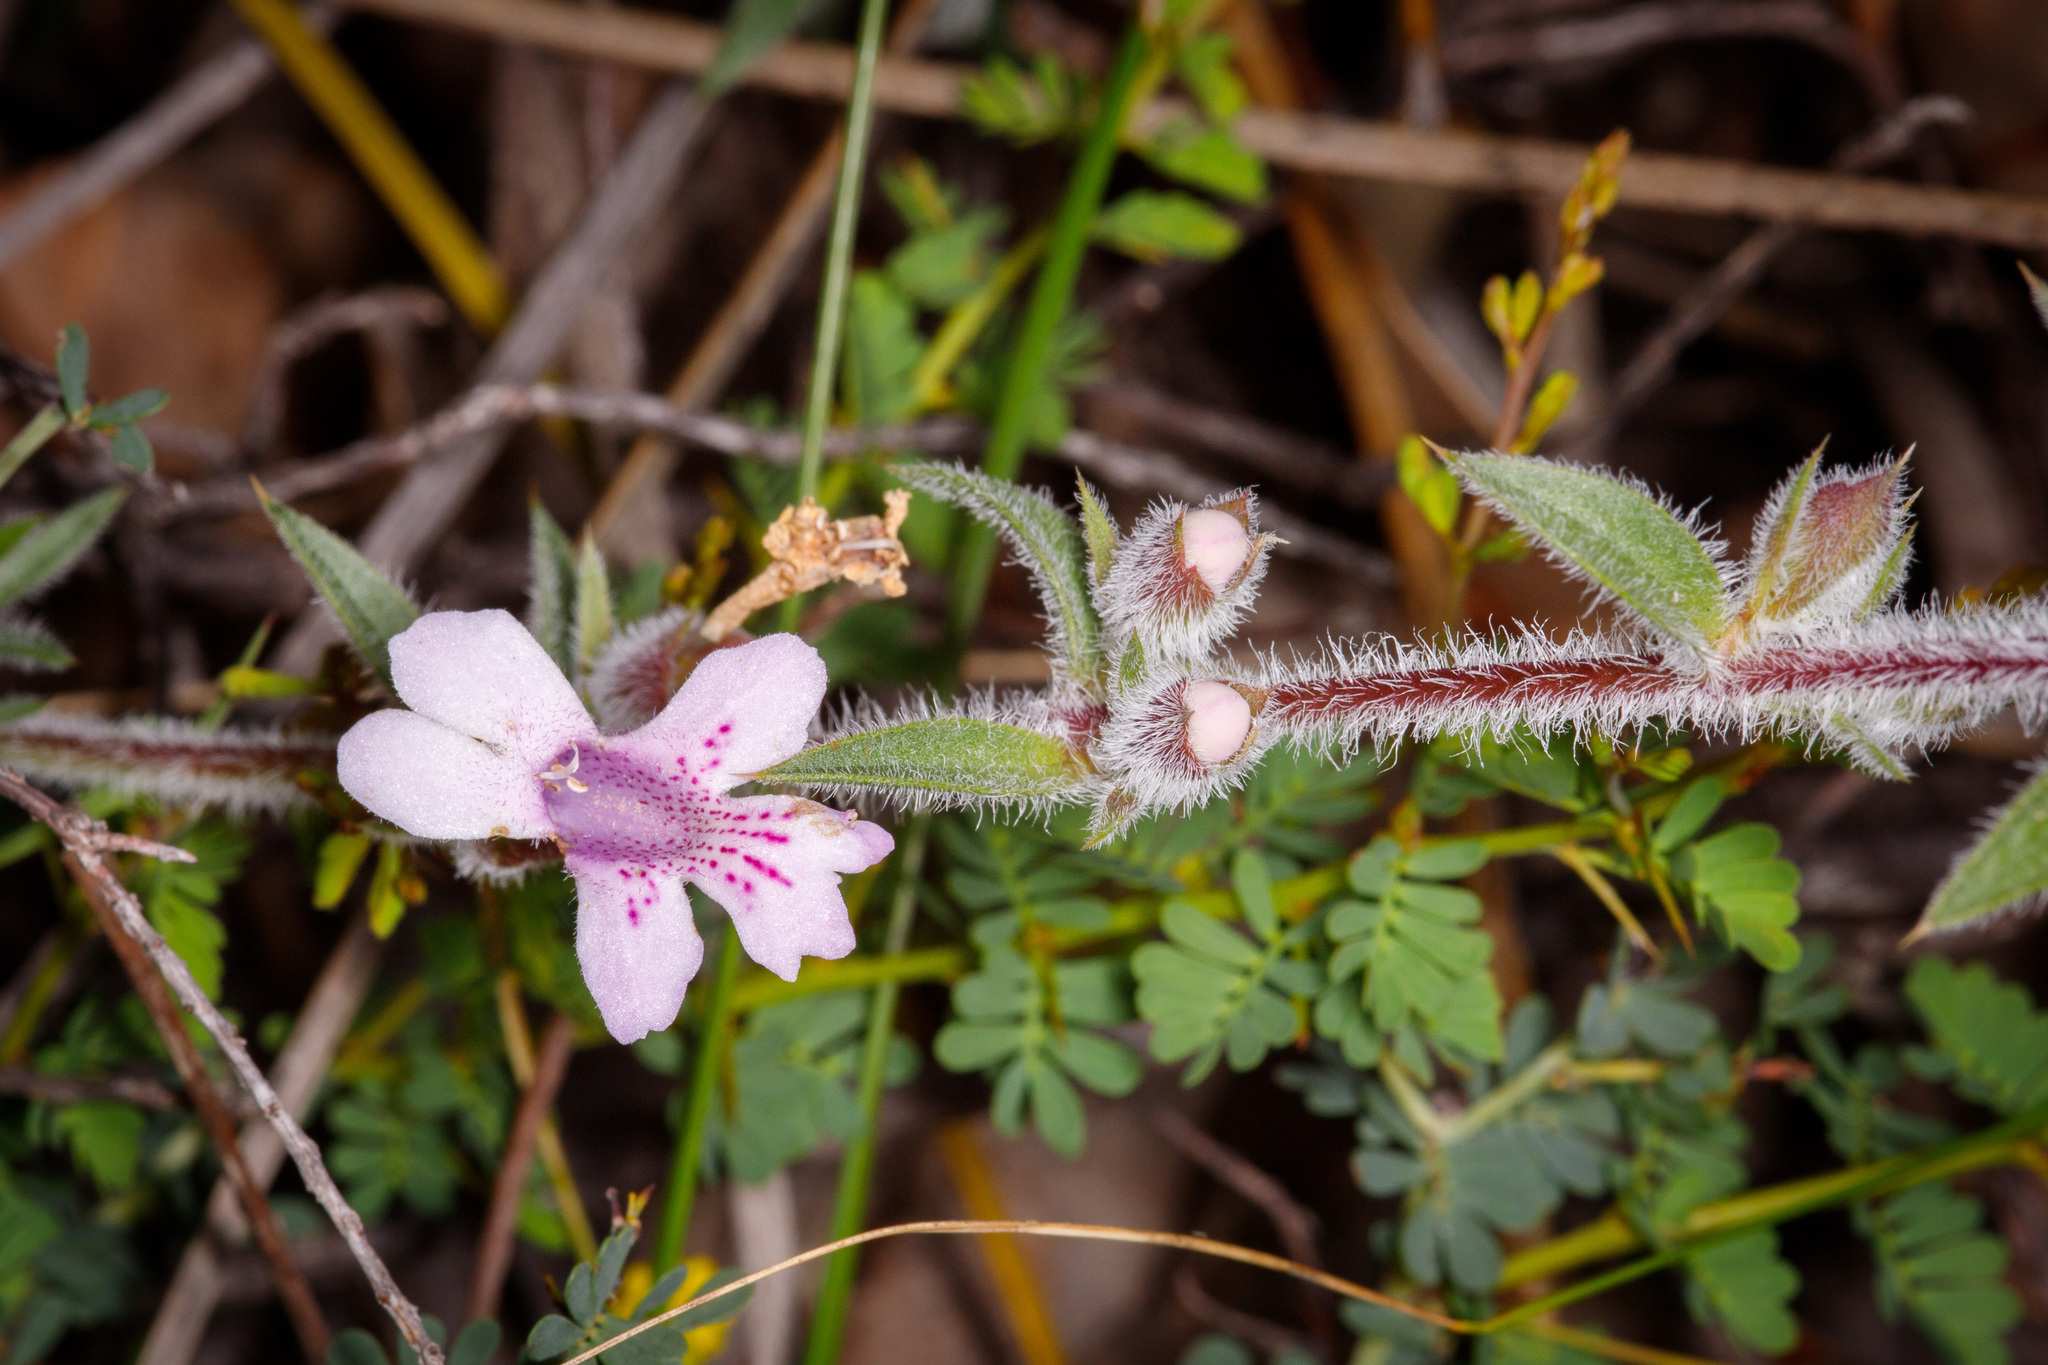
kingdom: Plantae
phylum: Tracheophyta
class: Magnoliopsida
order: Lamiales
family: Lamiaceae
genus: Hemiandra
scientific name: Hemiandra pungens
